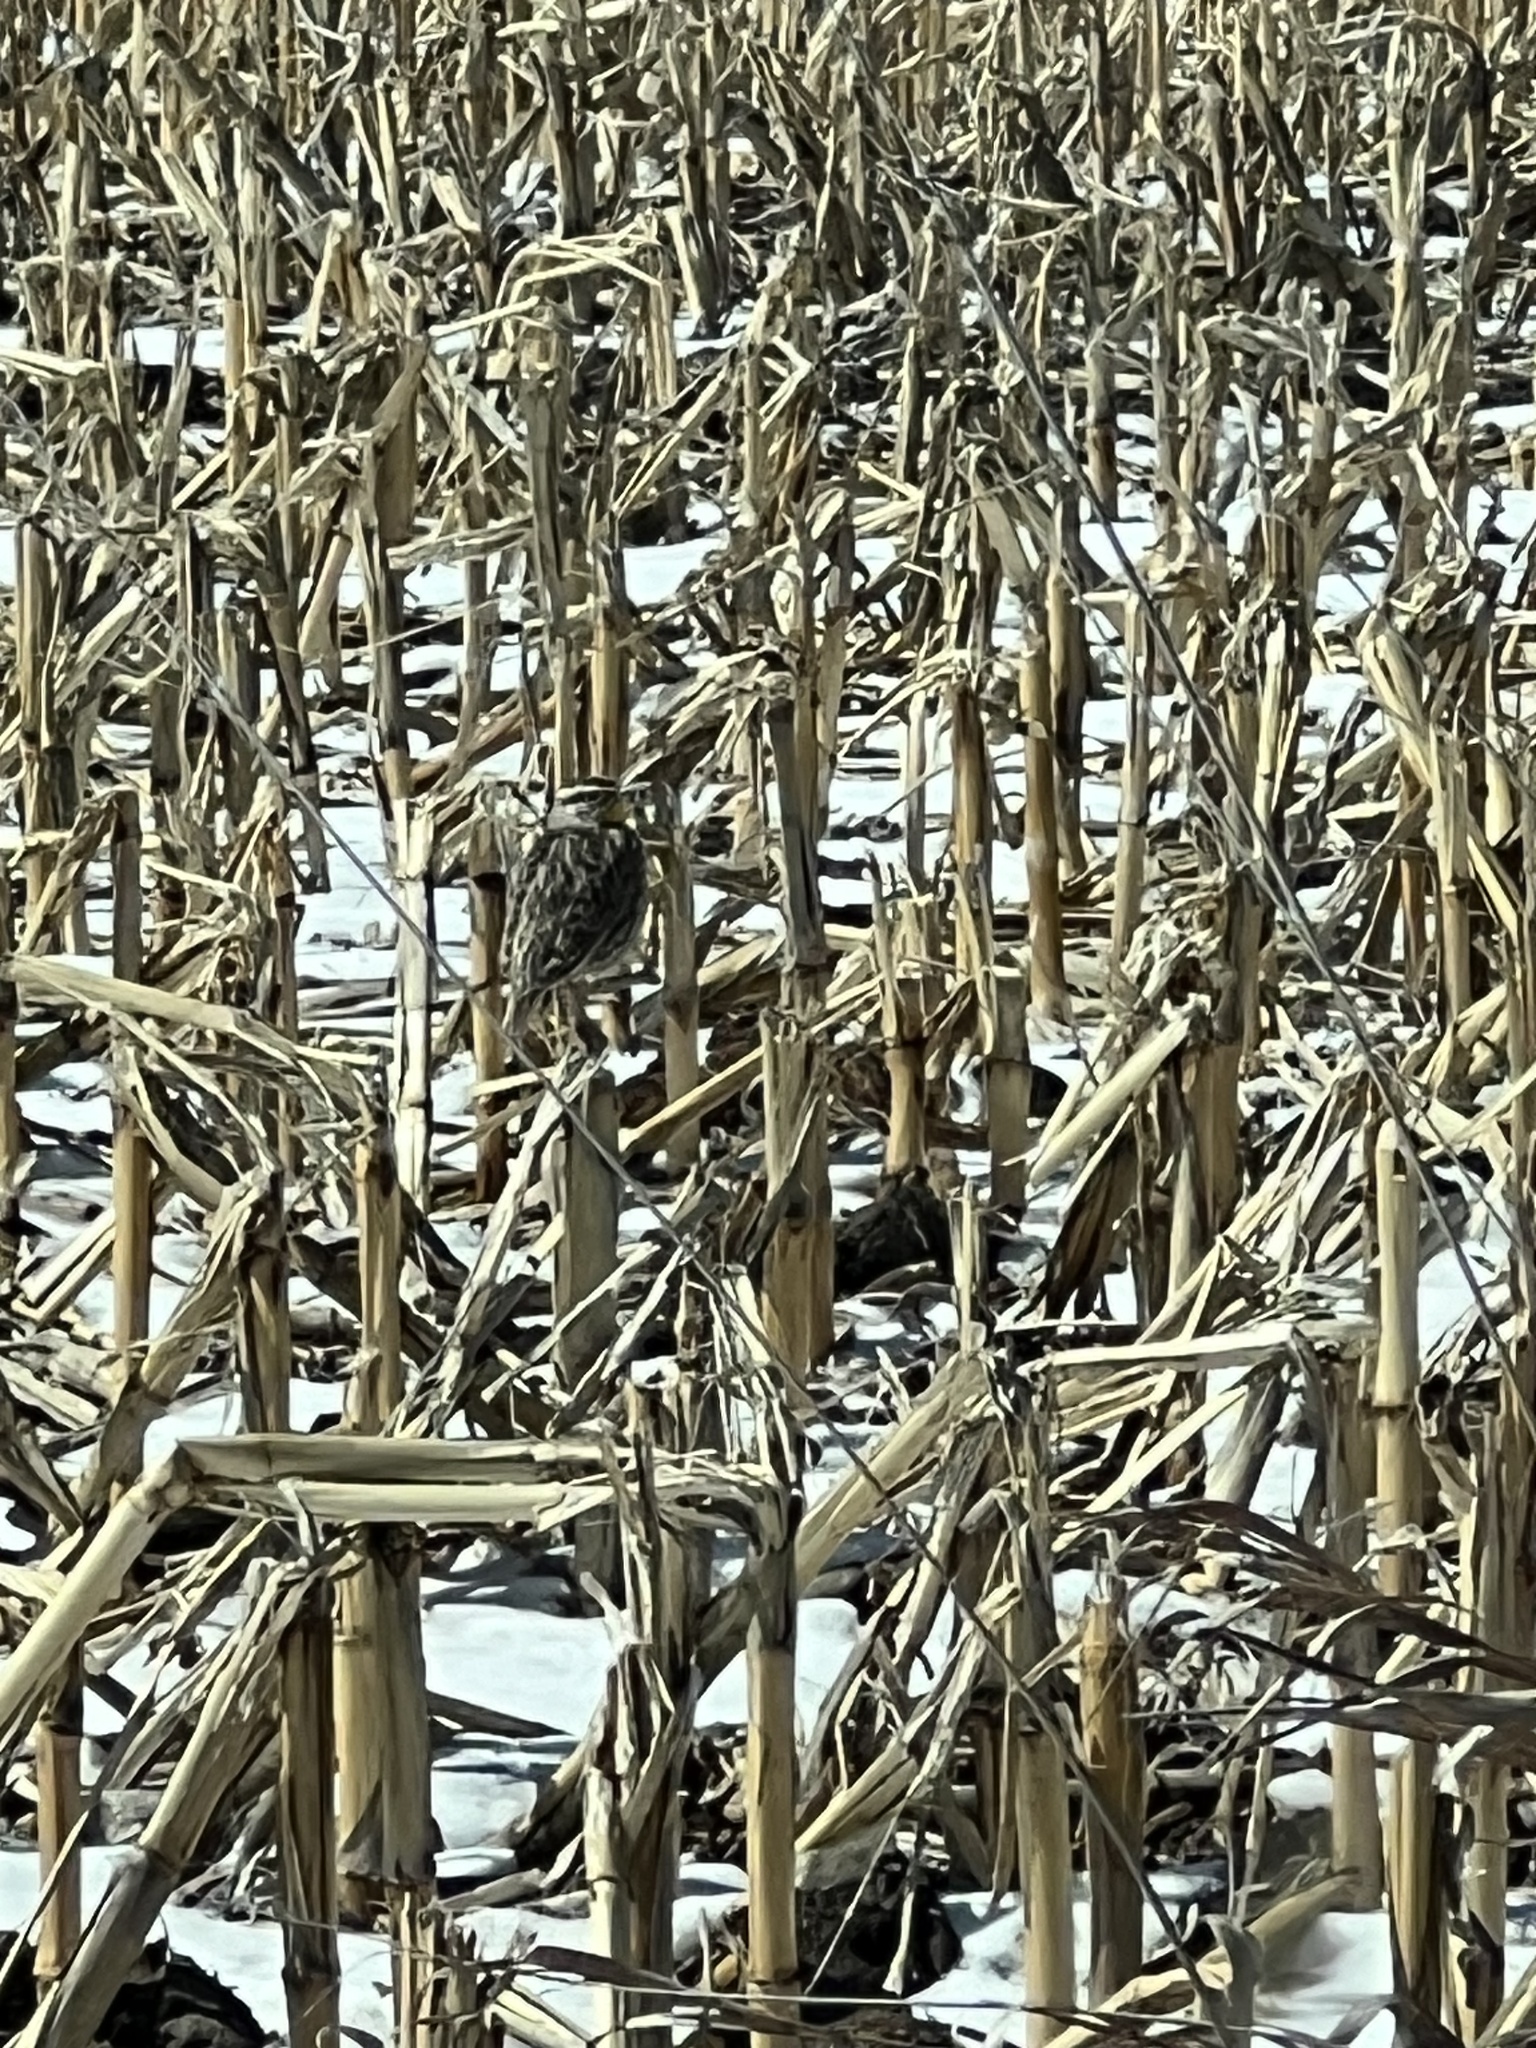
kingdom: Animalia
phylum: Chordata
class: Aves
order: Passeriformes
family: Icteridae
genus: Sturnella
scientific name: Sturnella neglecta
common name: Western meadowlark
